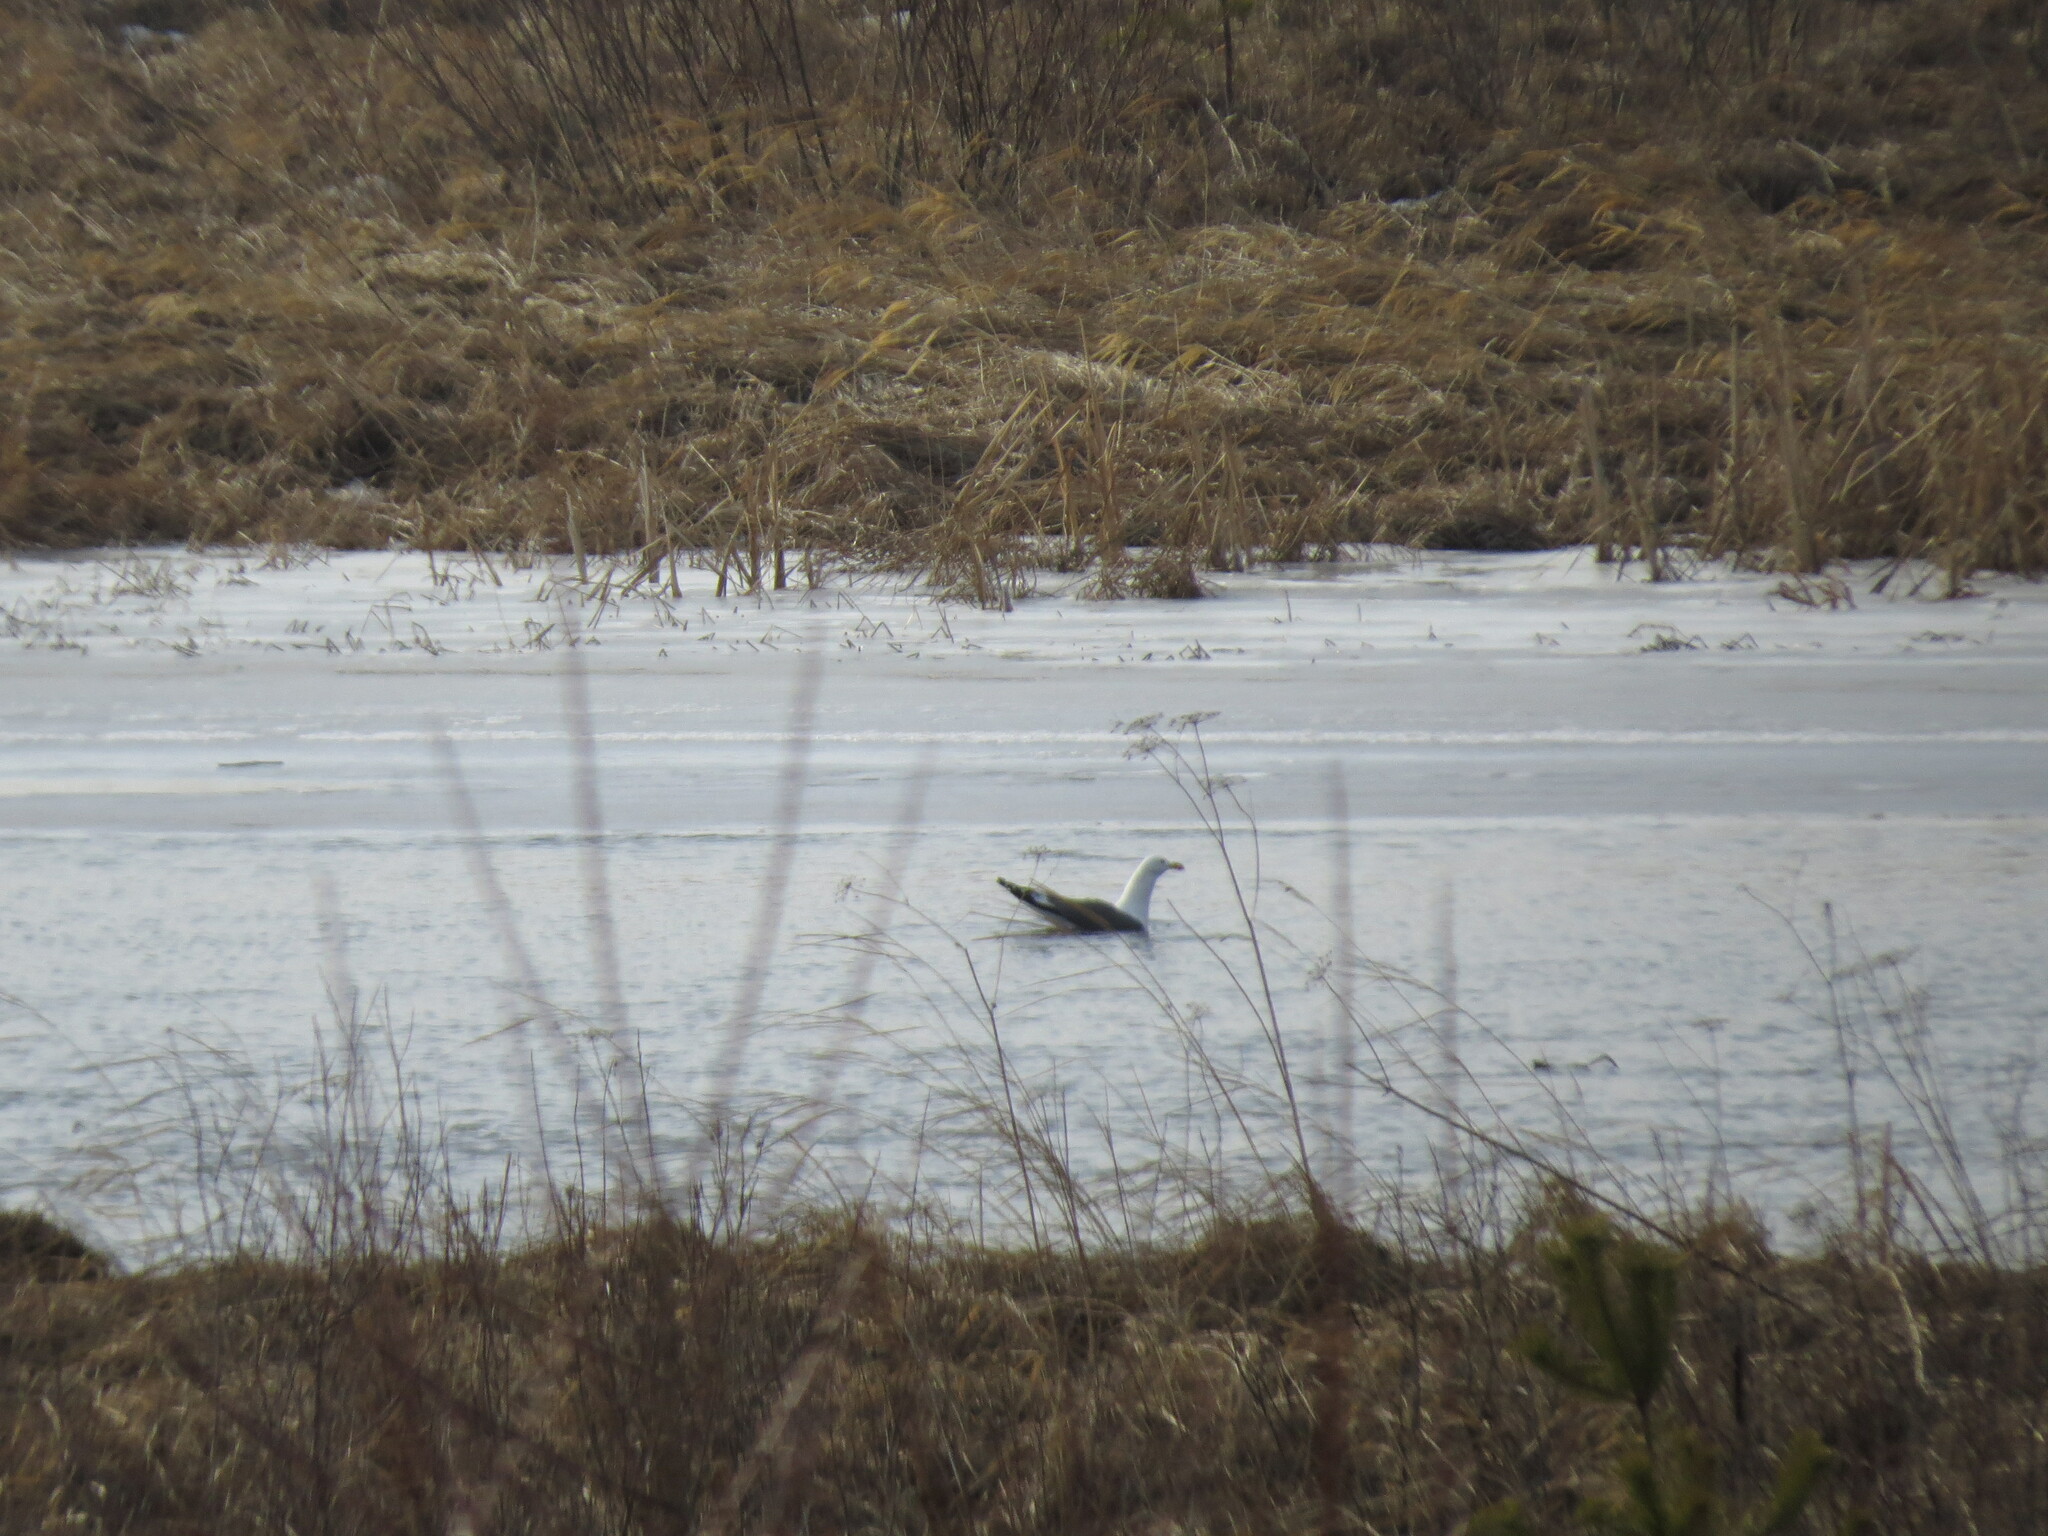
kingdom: Animalia
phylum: Chordata
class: Aves
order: Charadriiformes
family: Laridae
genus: Larus
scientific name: Larus fuscus
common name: Lesser black-backed gull
